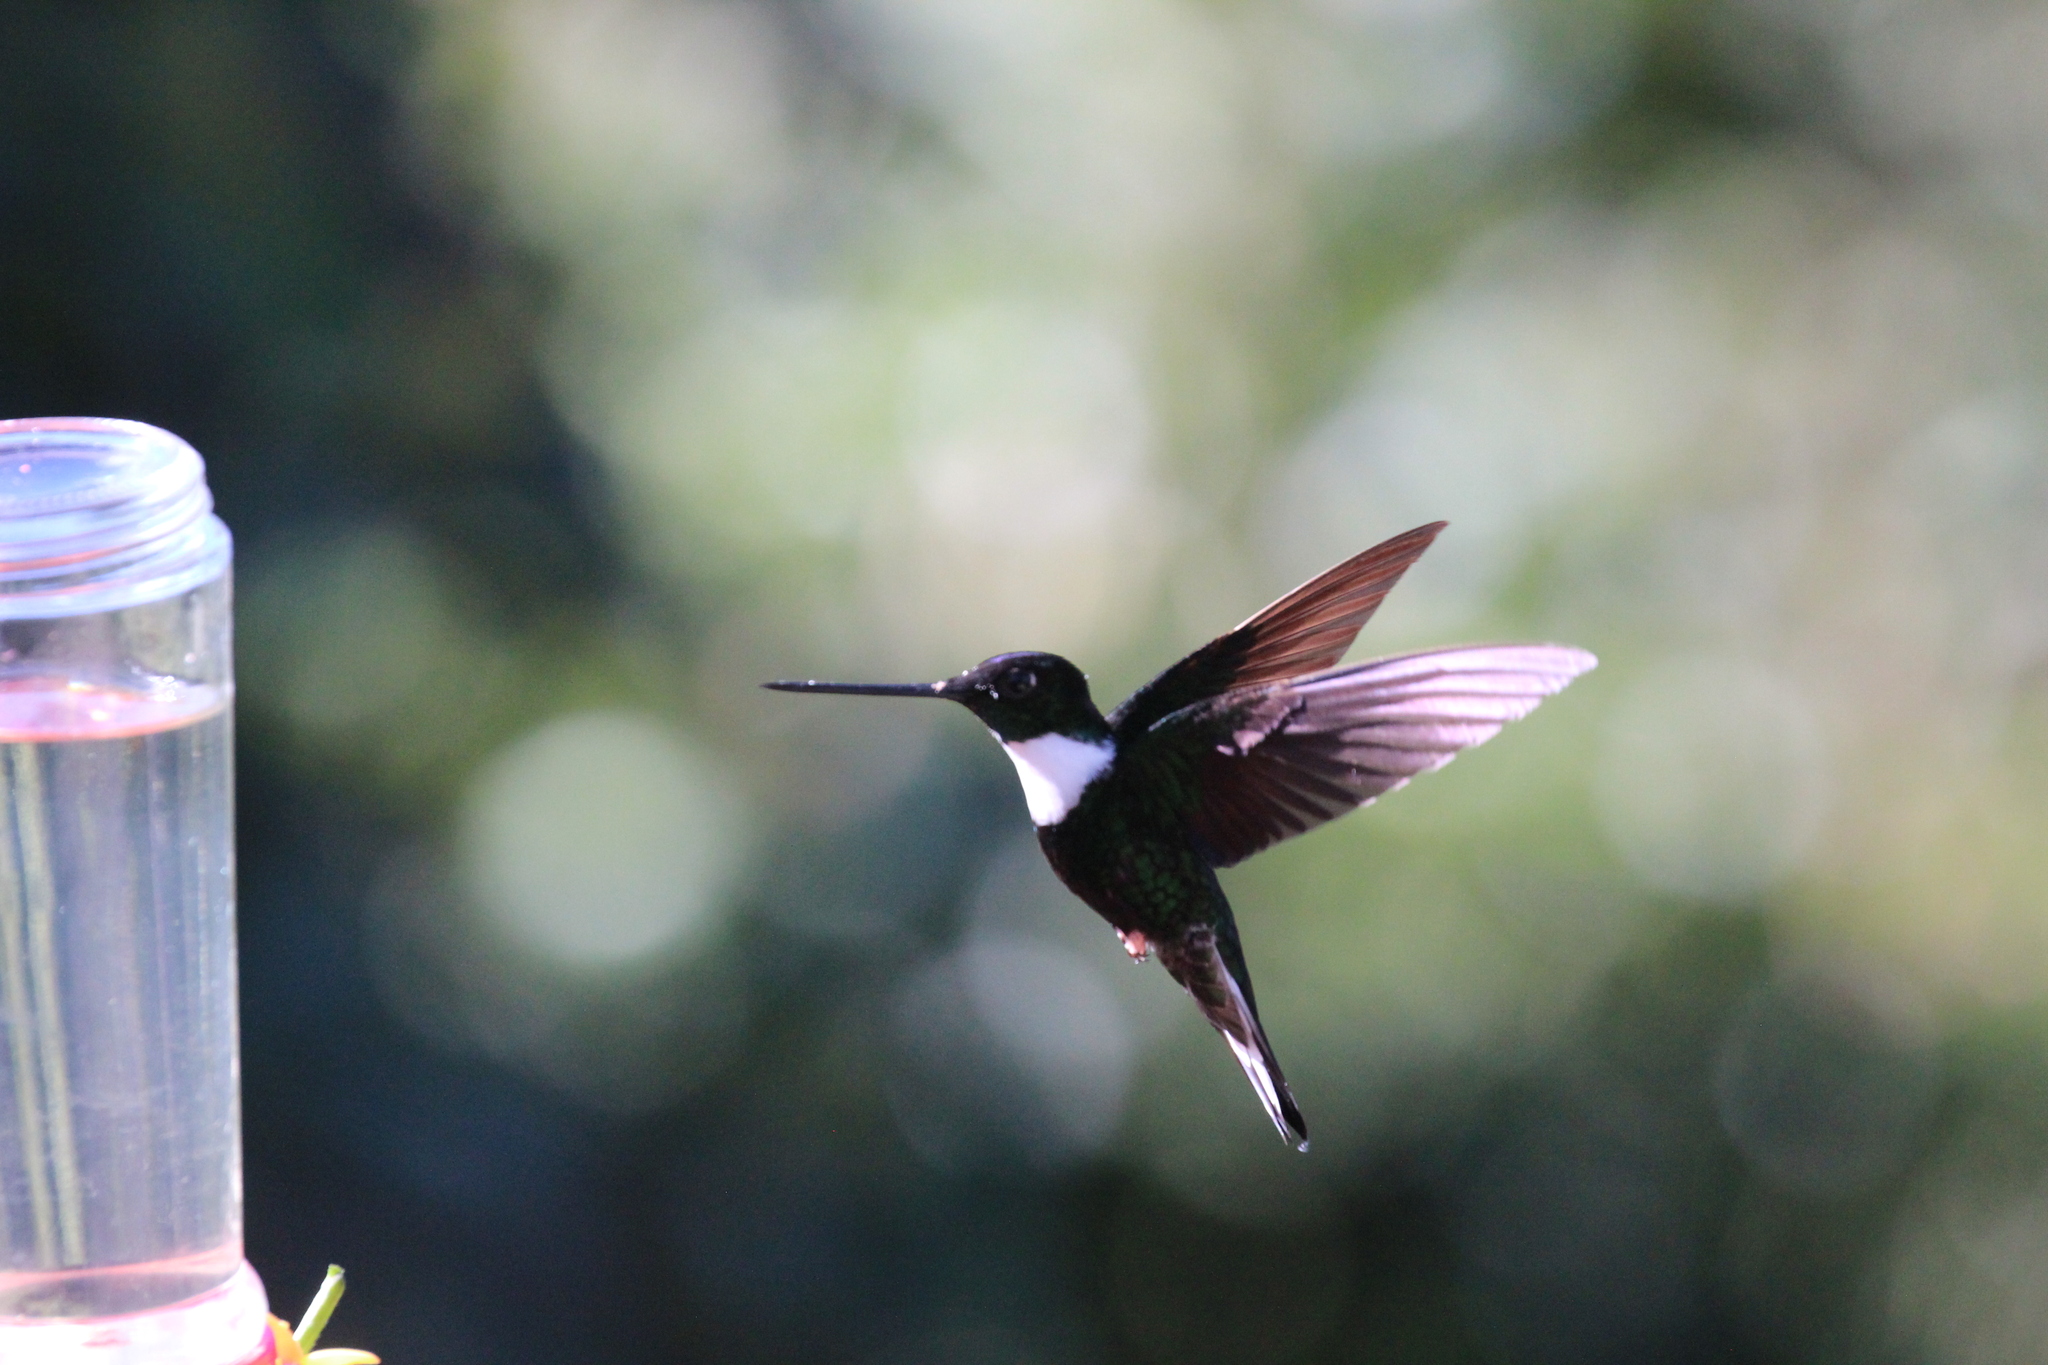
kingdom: Animalia
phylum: Chordata
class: Aves
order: Apodiformes
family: Trochilidae
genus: Coeligena
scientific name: Coeligena torquata
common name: Collared inca
